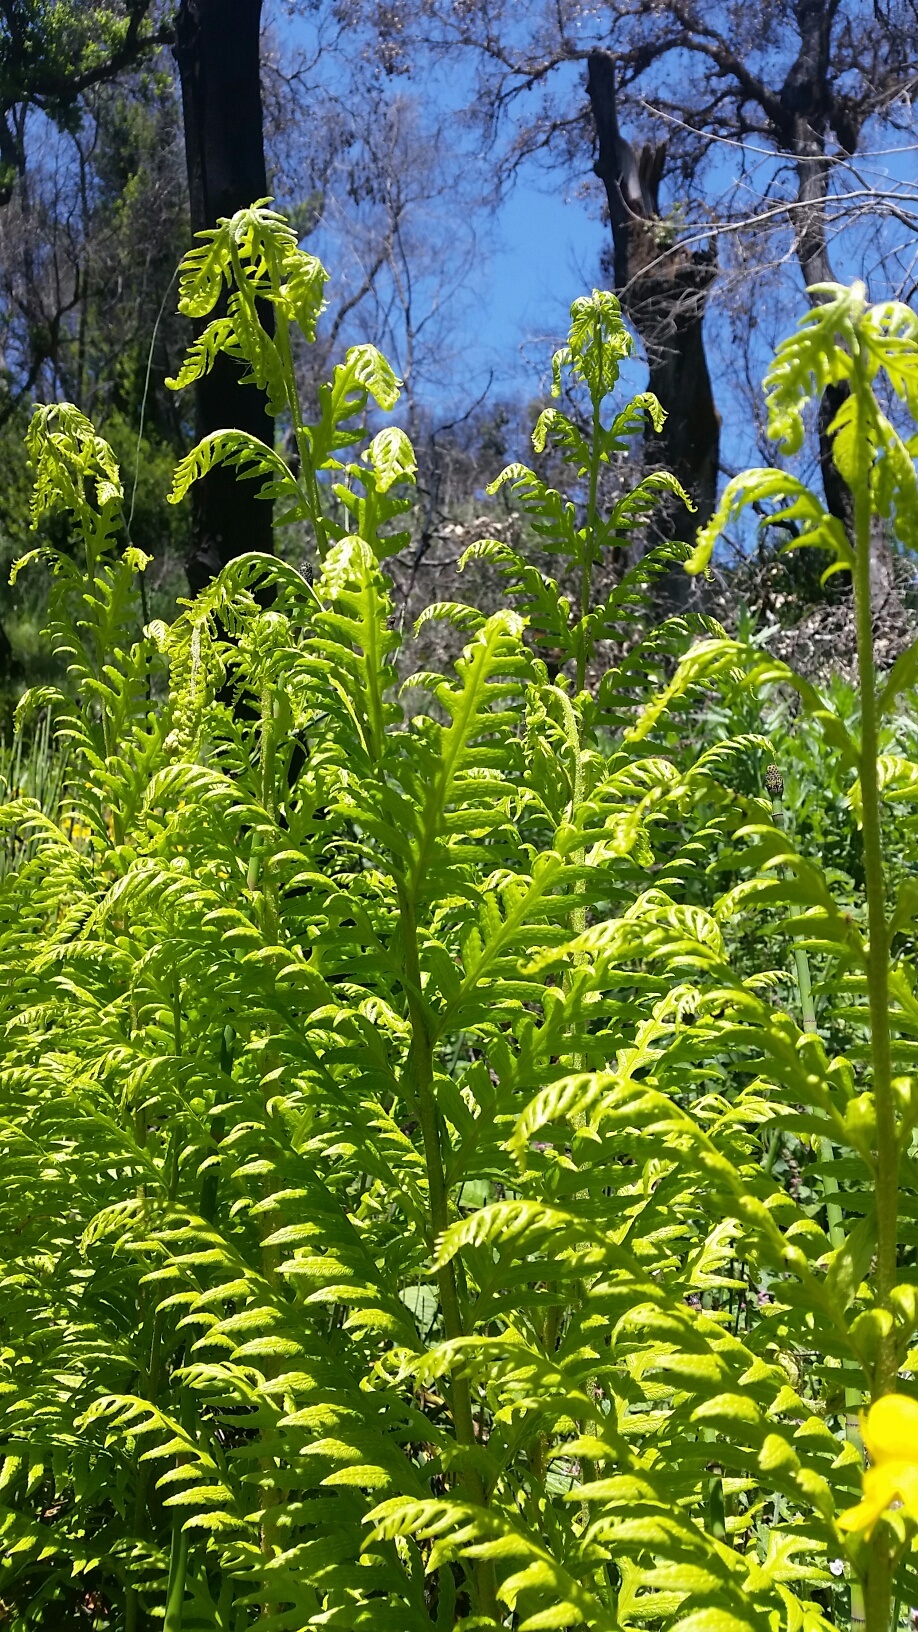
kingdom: Plantae
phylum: Tracheophyta
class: Polypodiopsida
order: Polypodiales
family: Blechnaceae
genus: Woodwardia
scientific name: Woodwardia fimbriata
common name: Giant chain fern
